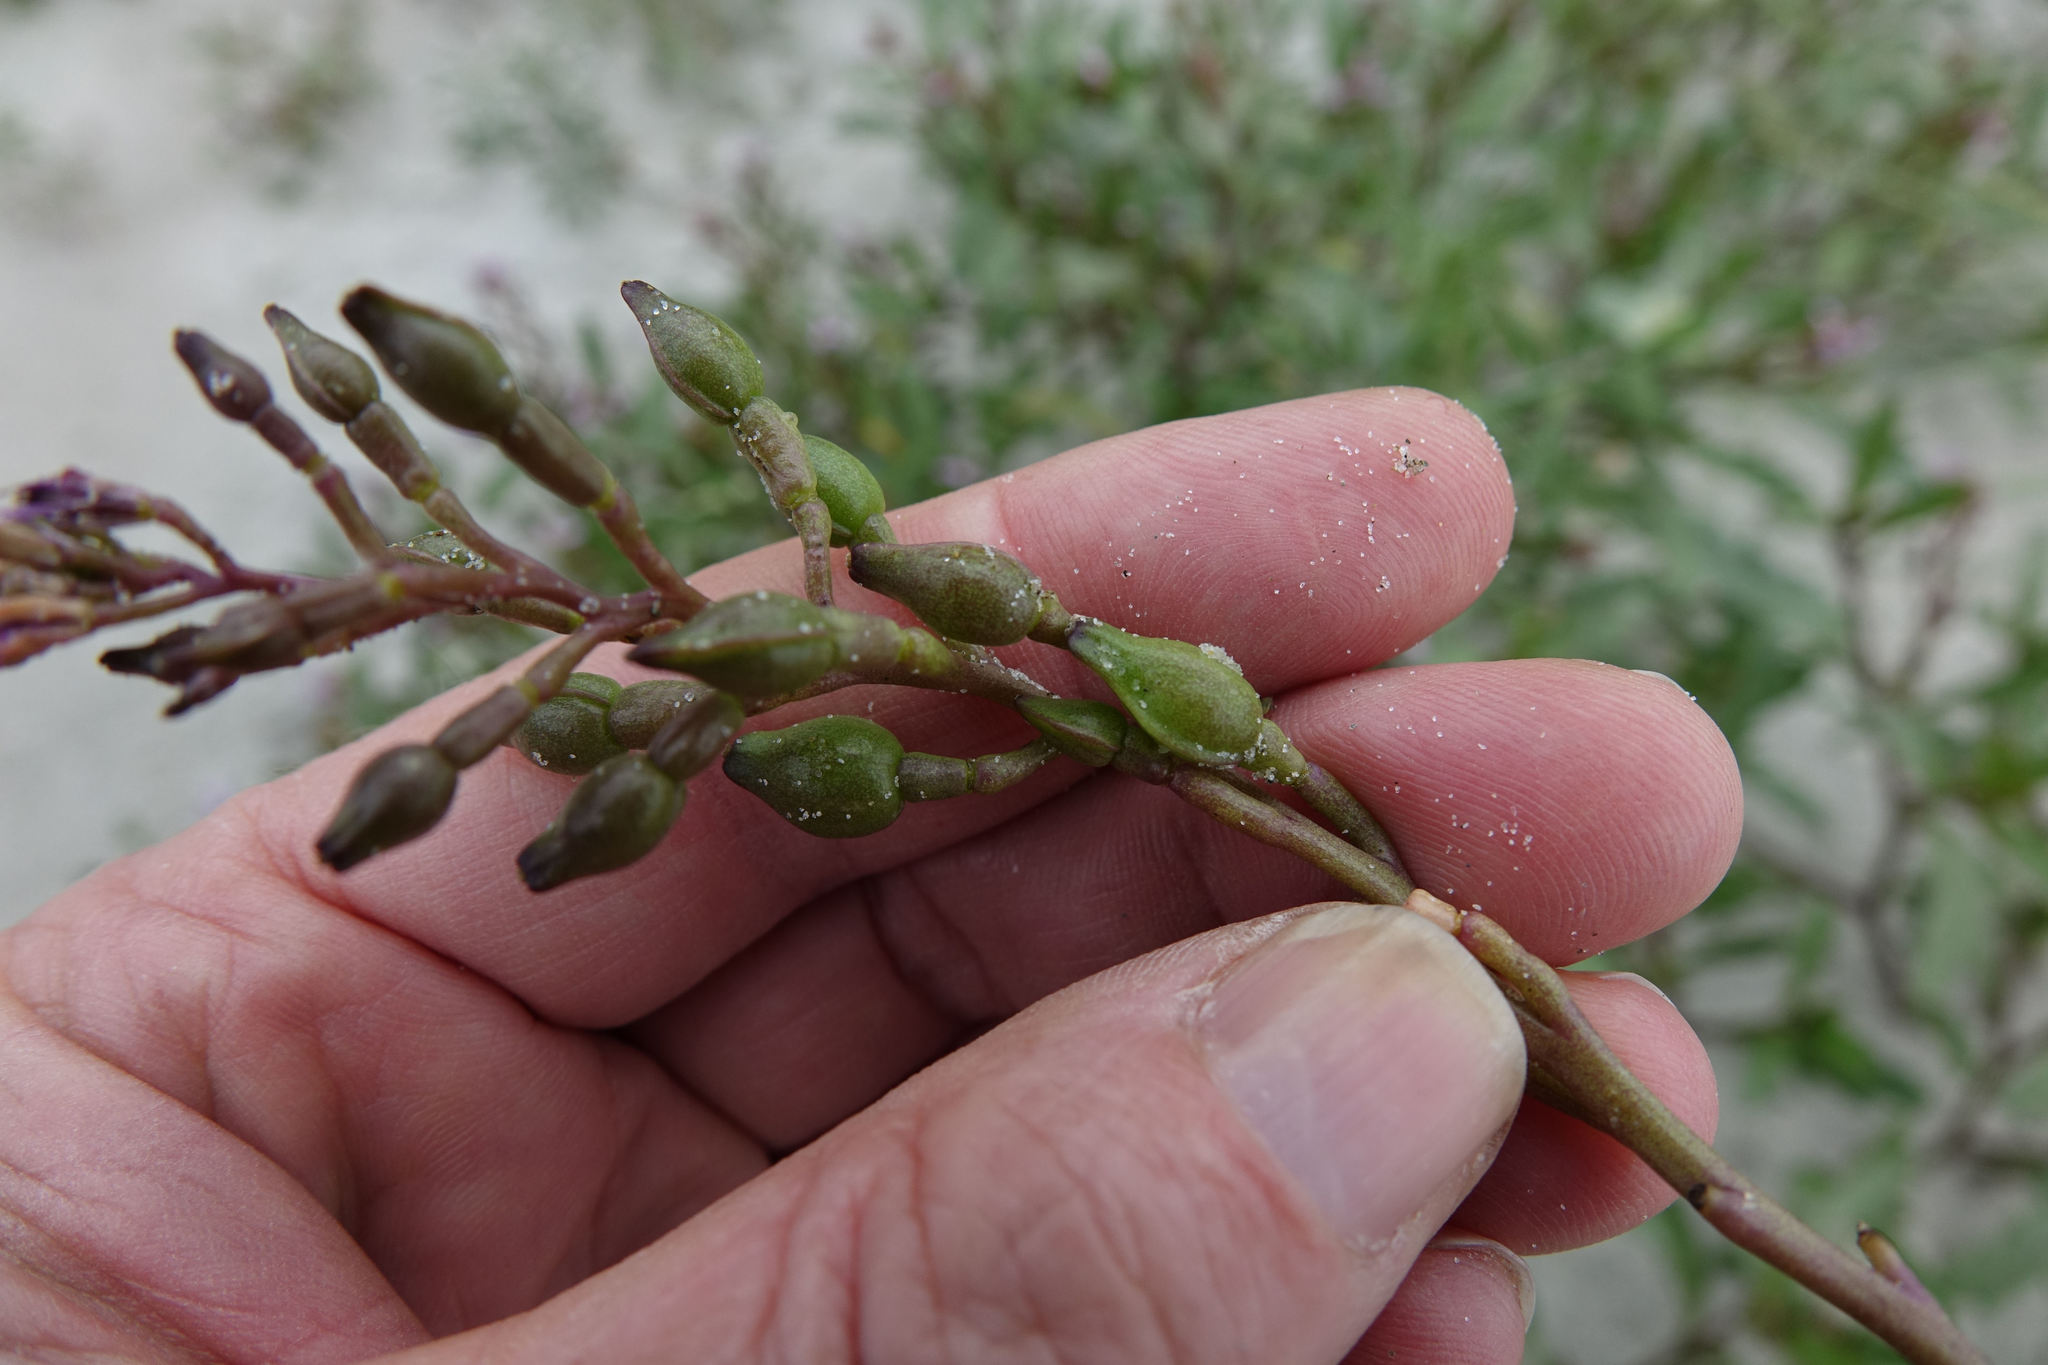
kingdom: Plantae
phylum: Tracheophyta
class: Magnoliopsida
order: Brassicales
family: Brassicaceae
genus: Cakile
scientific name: Cakile edentula
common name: American sea rocket
